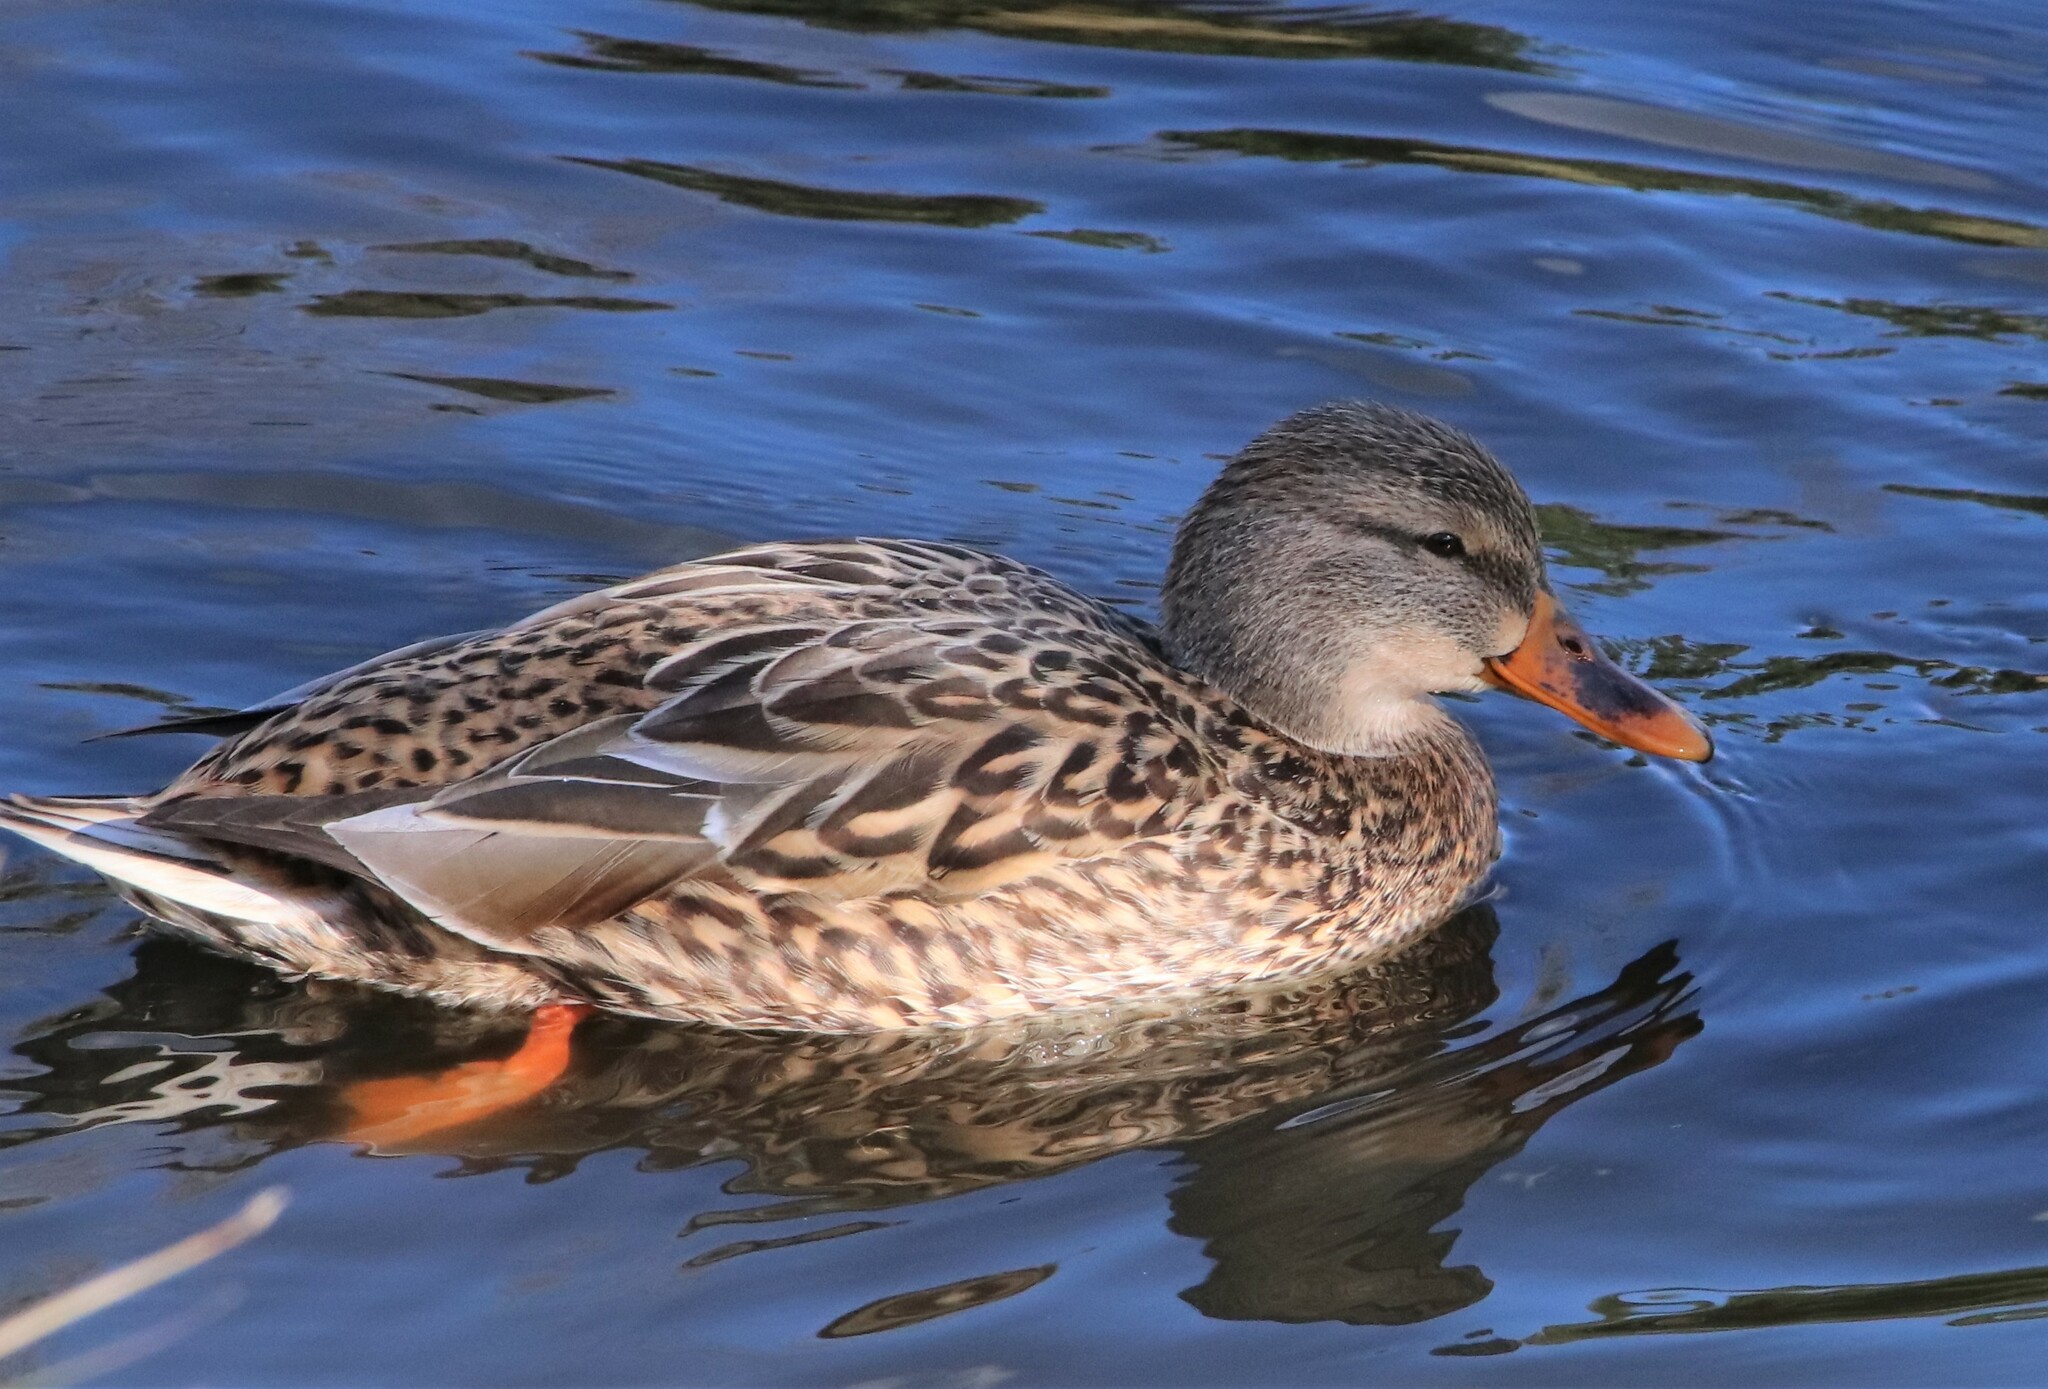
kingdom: Animalia
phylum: Chordata
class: Aves
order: Anseriformes
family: Anatidae
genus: Anas
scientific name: Anas platyrhynchos
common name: Mallard
